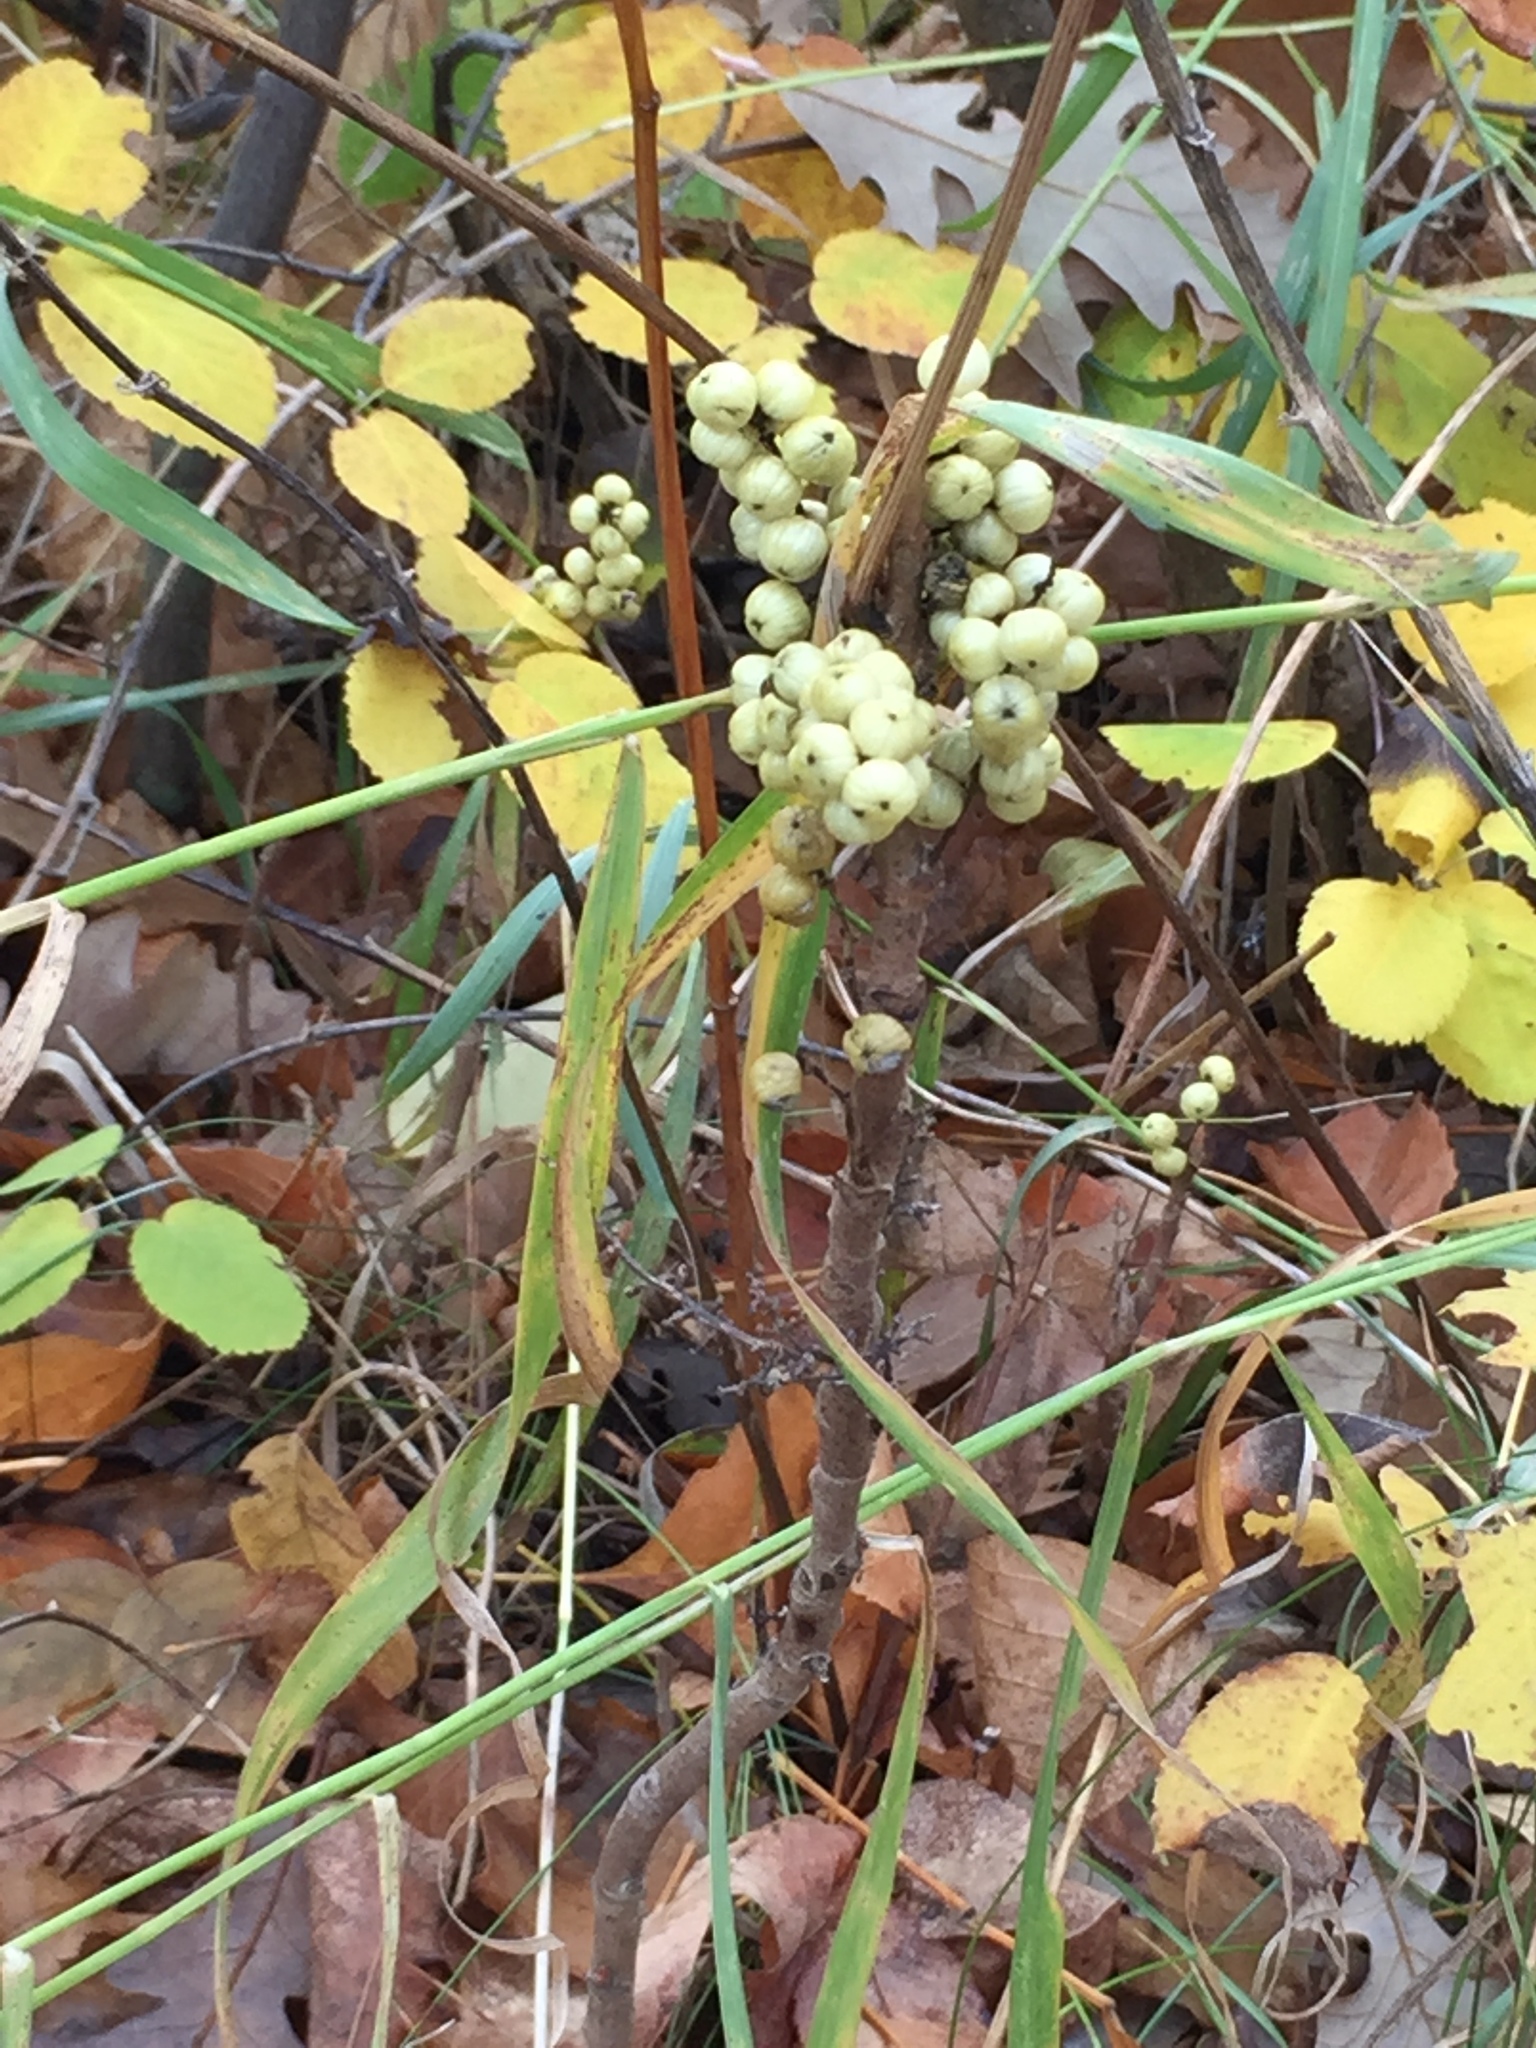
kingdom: Plantae
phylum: Tracheophyta
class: Magnoliopsida
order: Sapindales
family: Anacardiaceae
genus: Toxicodendron
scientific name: Toxicodendron rydbergii
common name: Rydberg's poison-ivy
